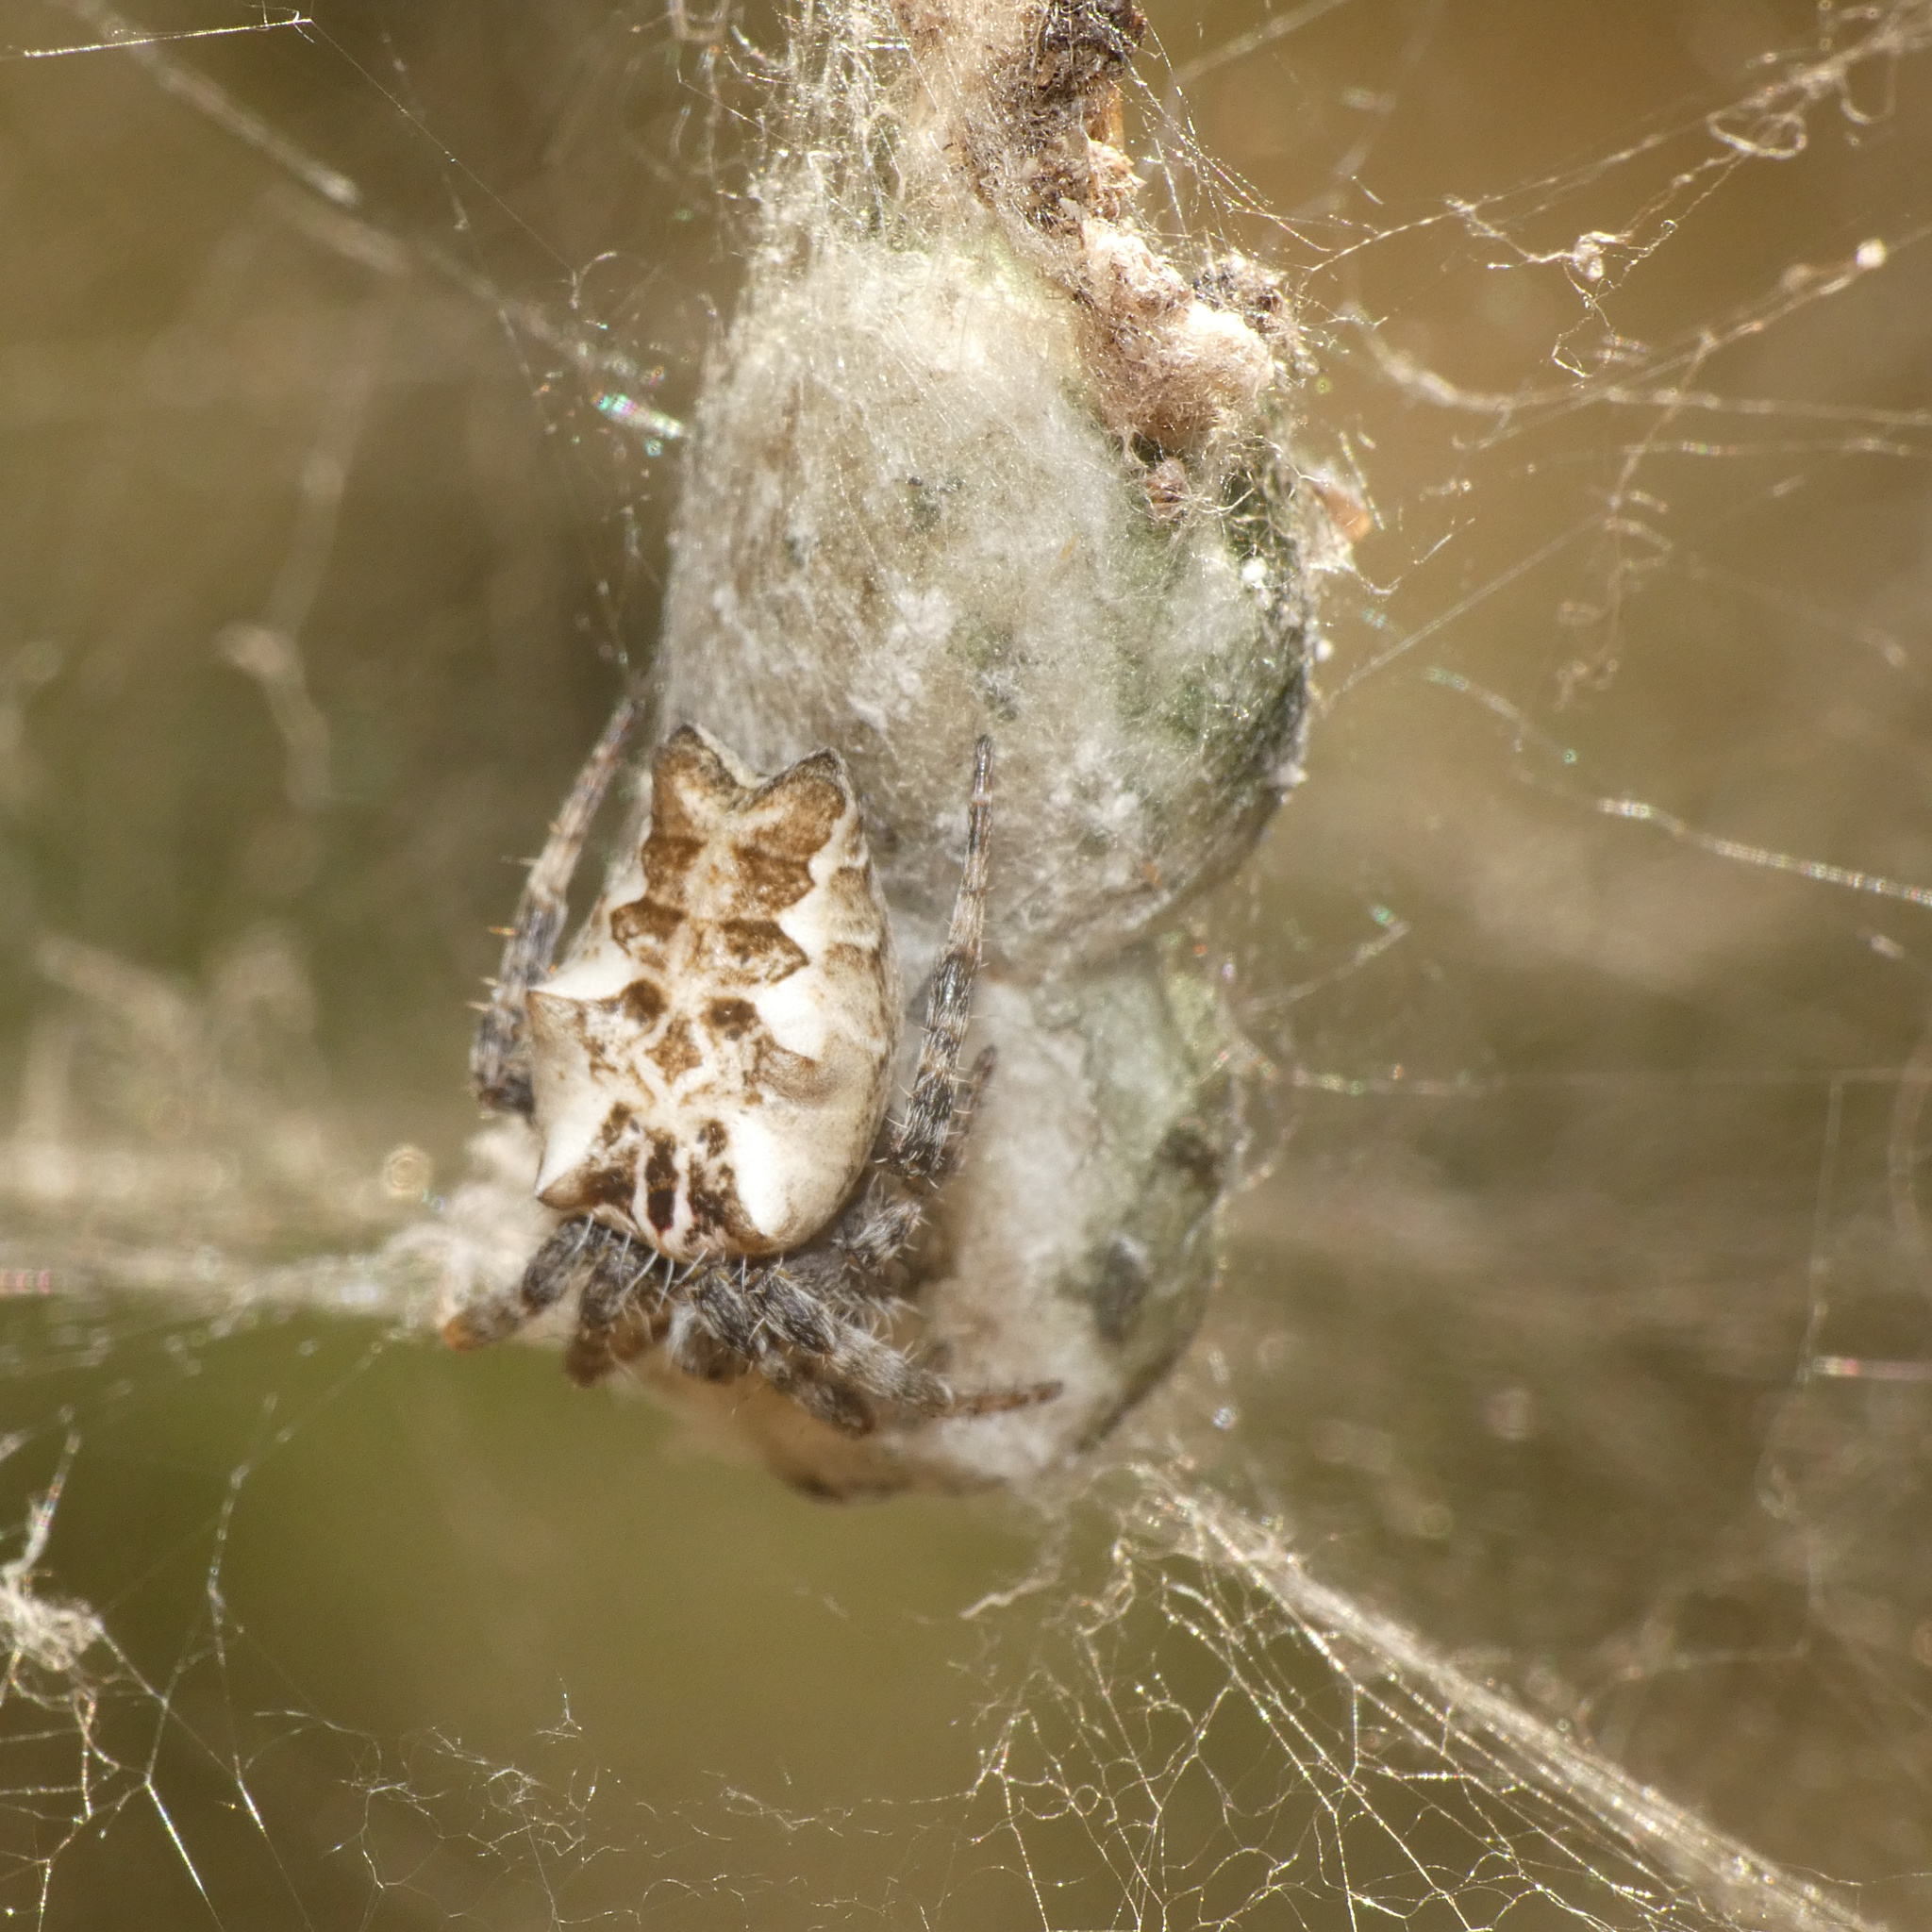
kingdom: Animalia
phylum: Arthropoda
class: Arachnida
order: Araneae
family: Araneidae
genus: Cyrtophora
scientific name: Cyrtophora citricola
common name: Orb weavers
